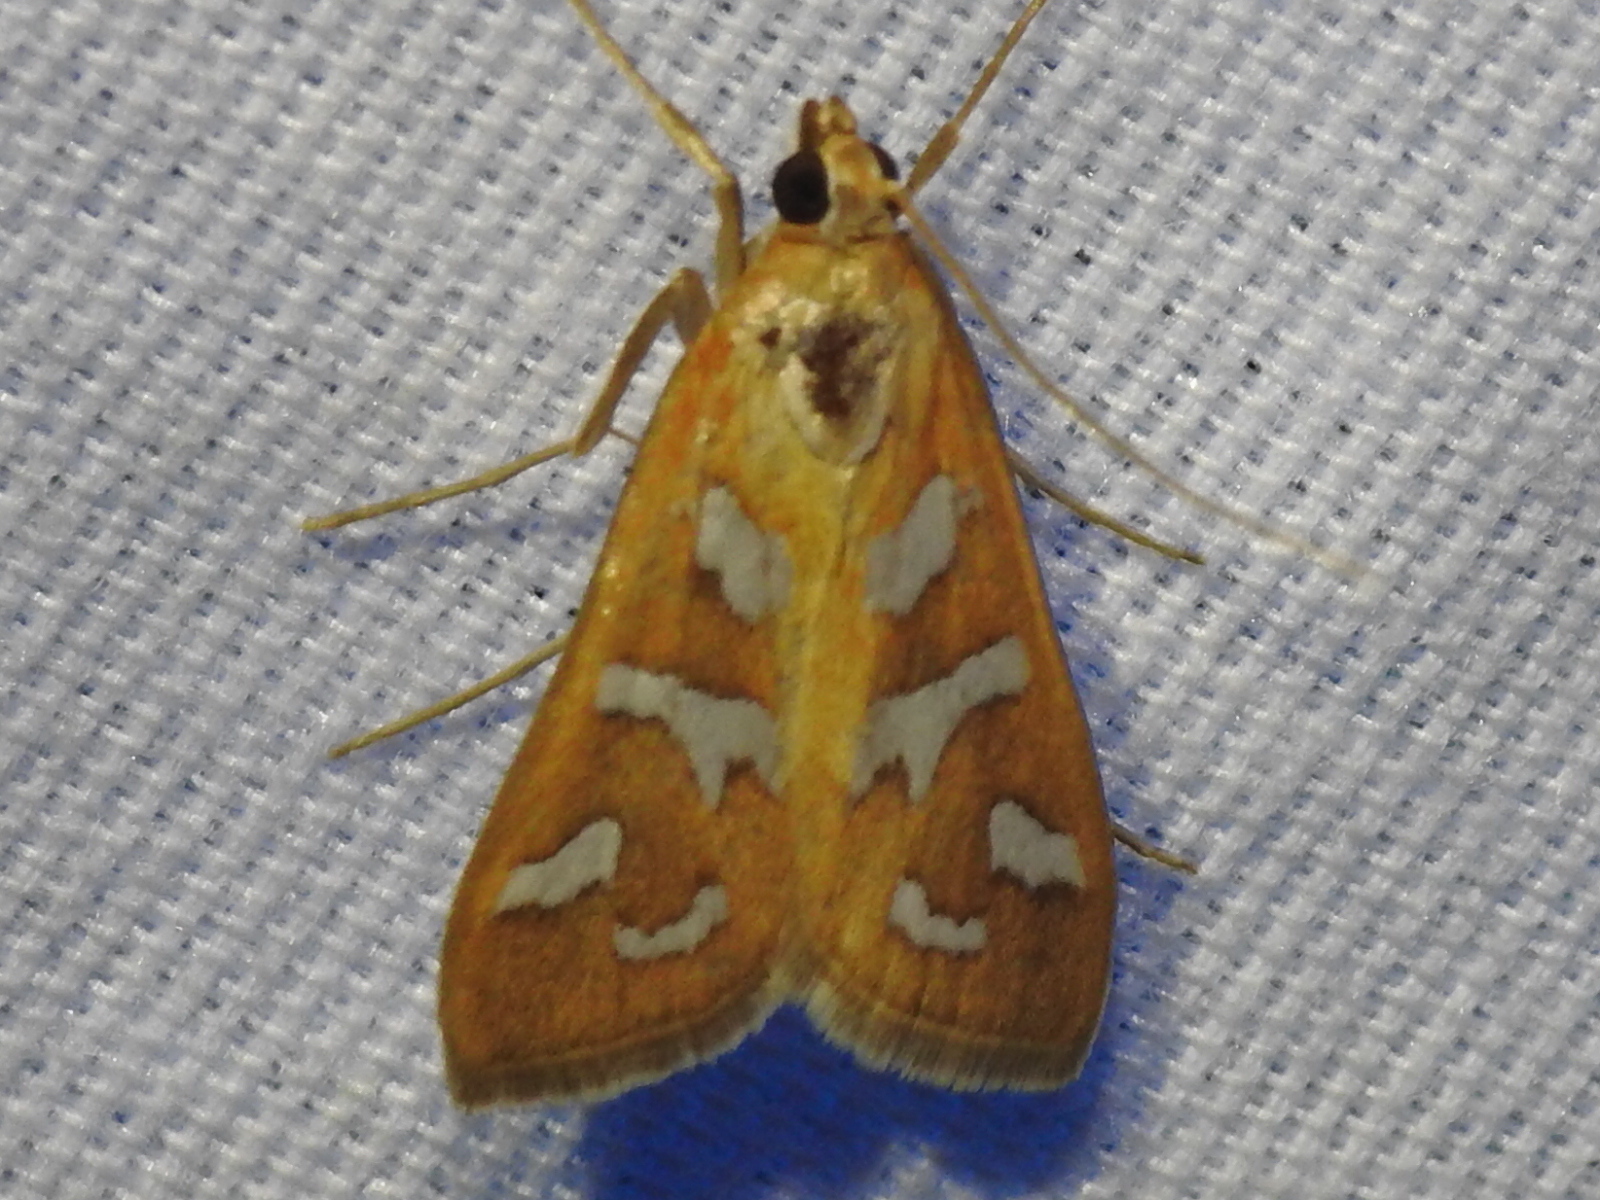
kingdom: Animalia
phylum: Arthropoda
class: Insecta
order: Lepidoptera
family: Crambidae
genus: Diastictis
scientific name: Diastictis fracturalis
